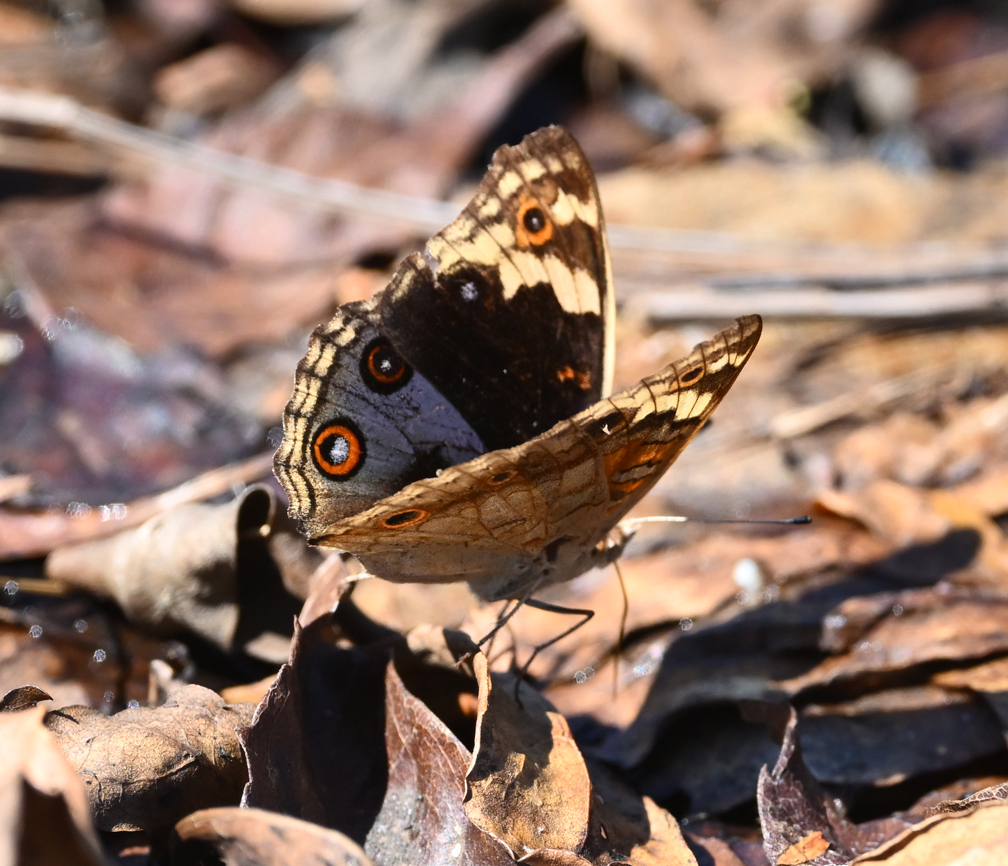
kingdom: Animalia
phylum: Arthropoda
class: Insecta
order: Lepidoptera
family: Nymphalidae
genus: Junonia
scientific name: Junonia orithya
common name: Blue pansy
